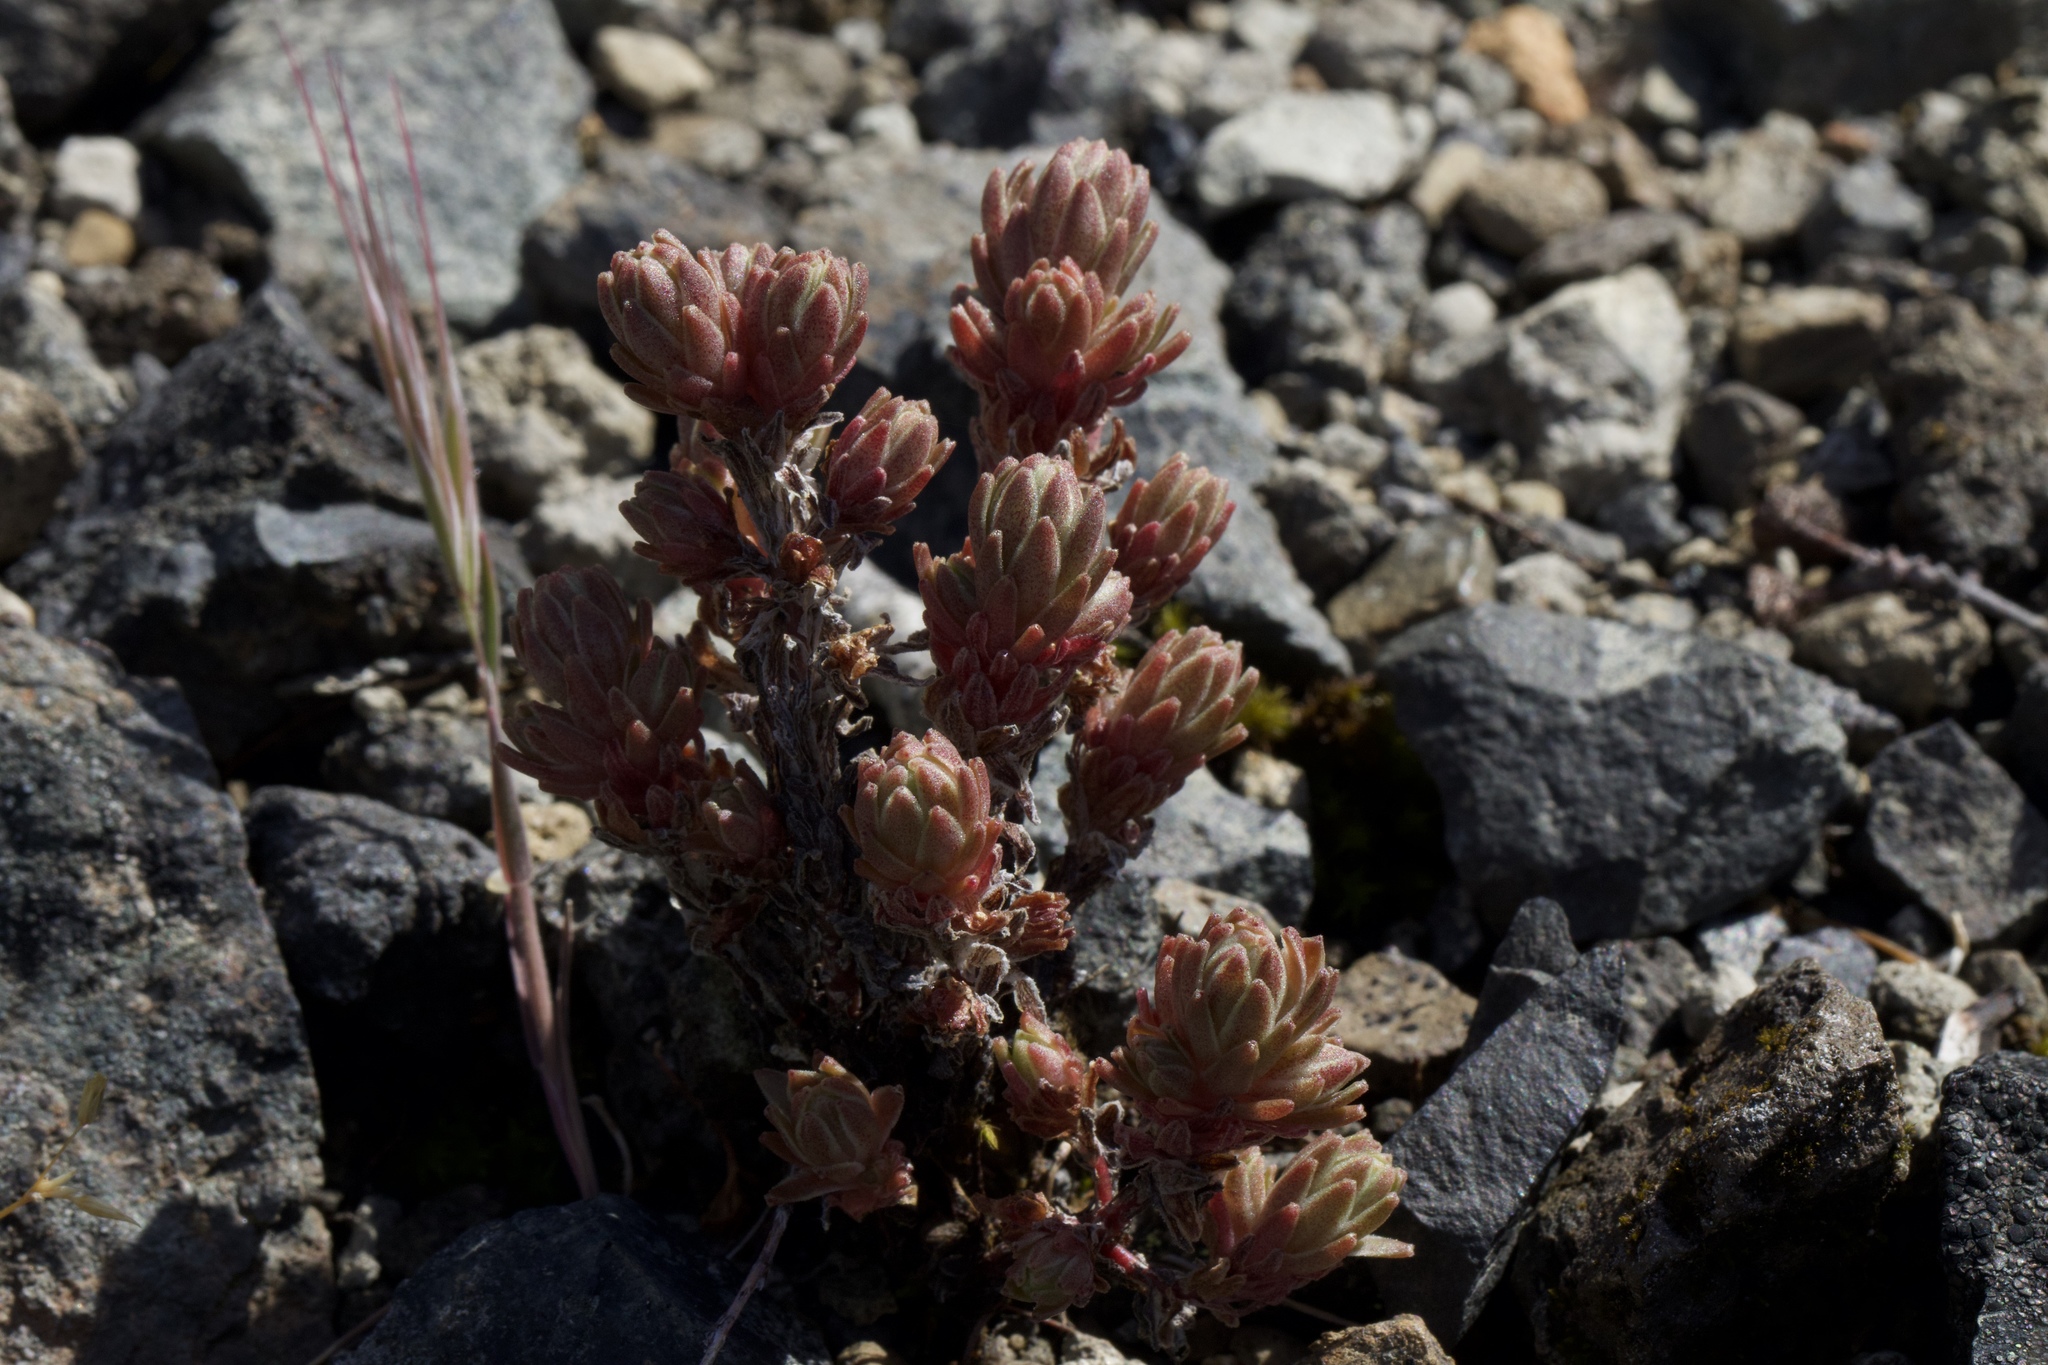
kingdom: Plantae
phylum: Tracheophyta
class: Magnoliopsida
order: Saxifragales
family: Crassulaceae
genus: Sedum
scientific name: Sedum radiatum
